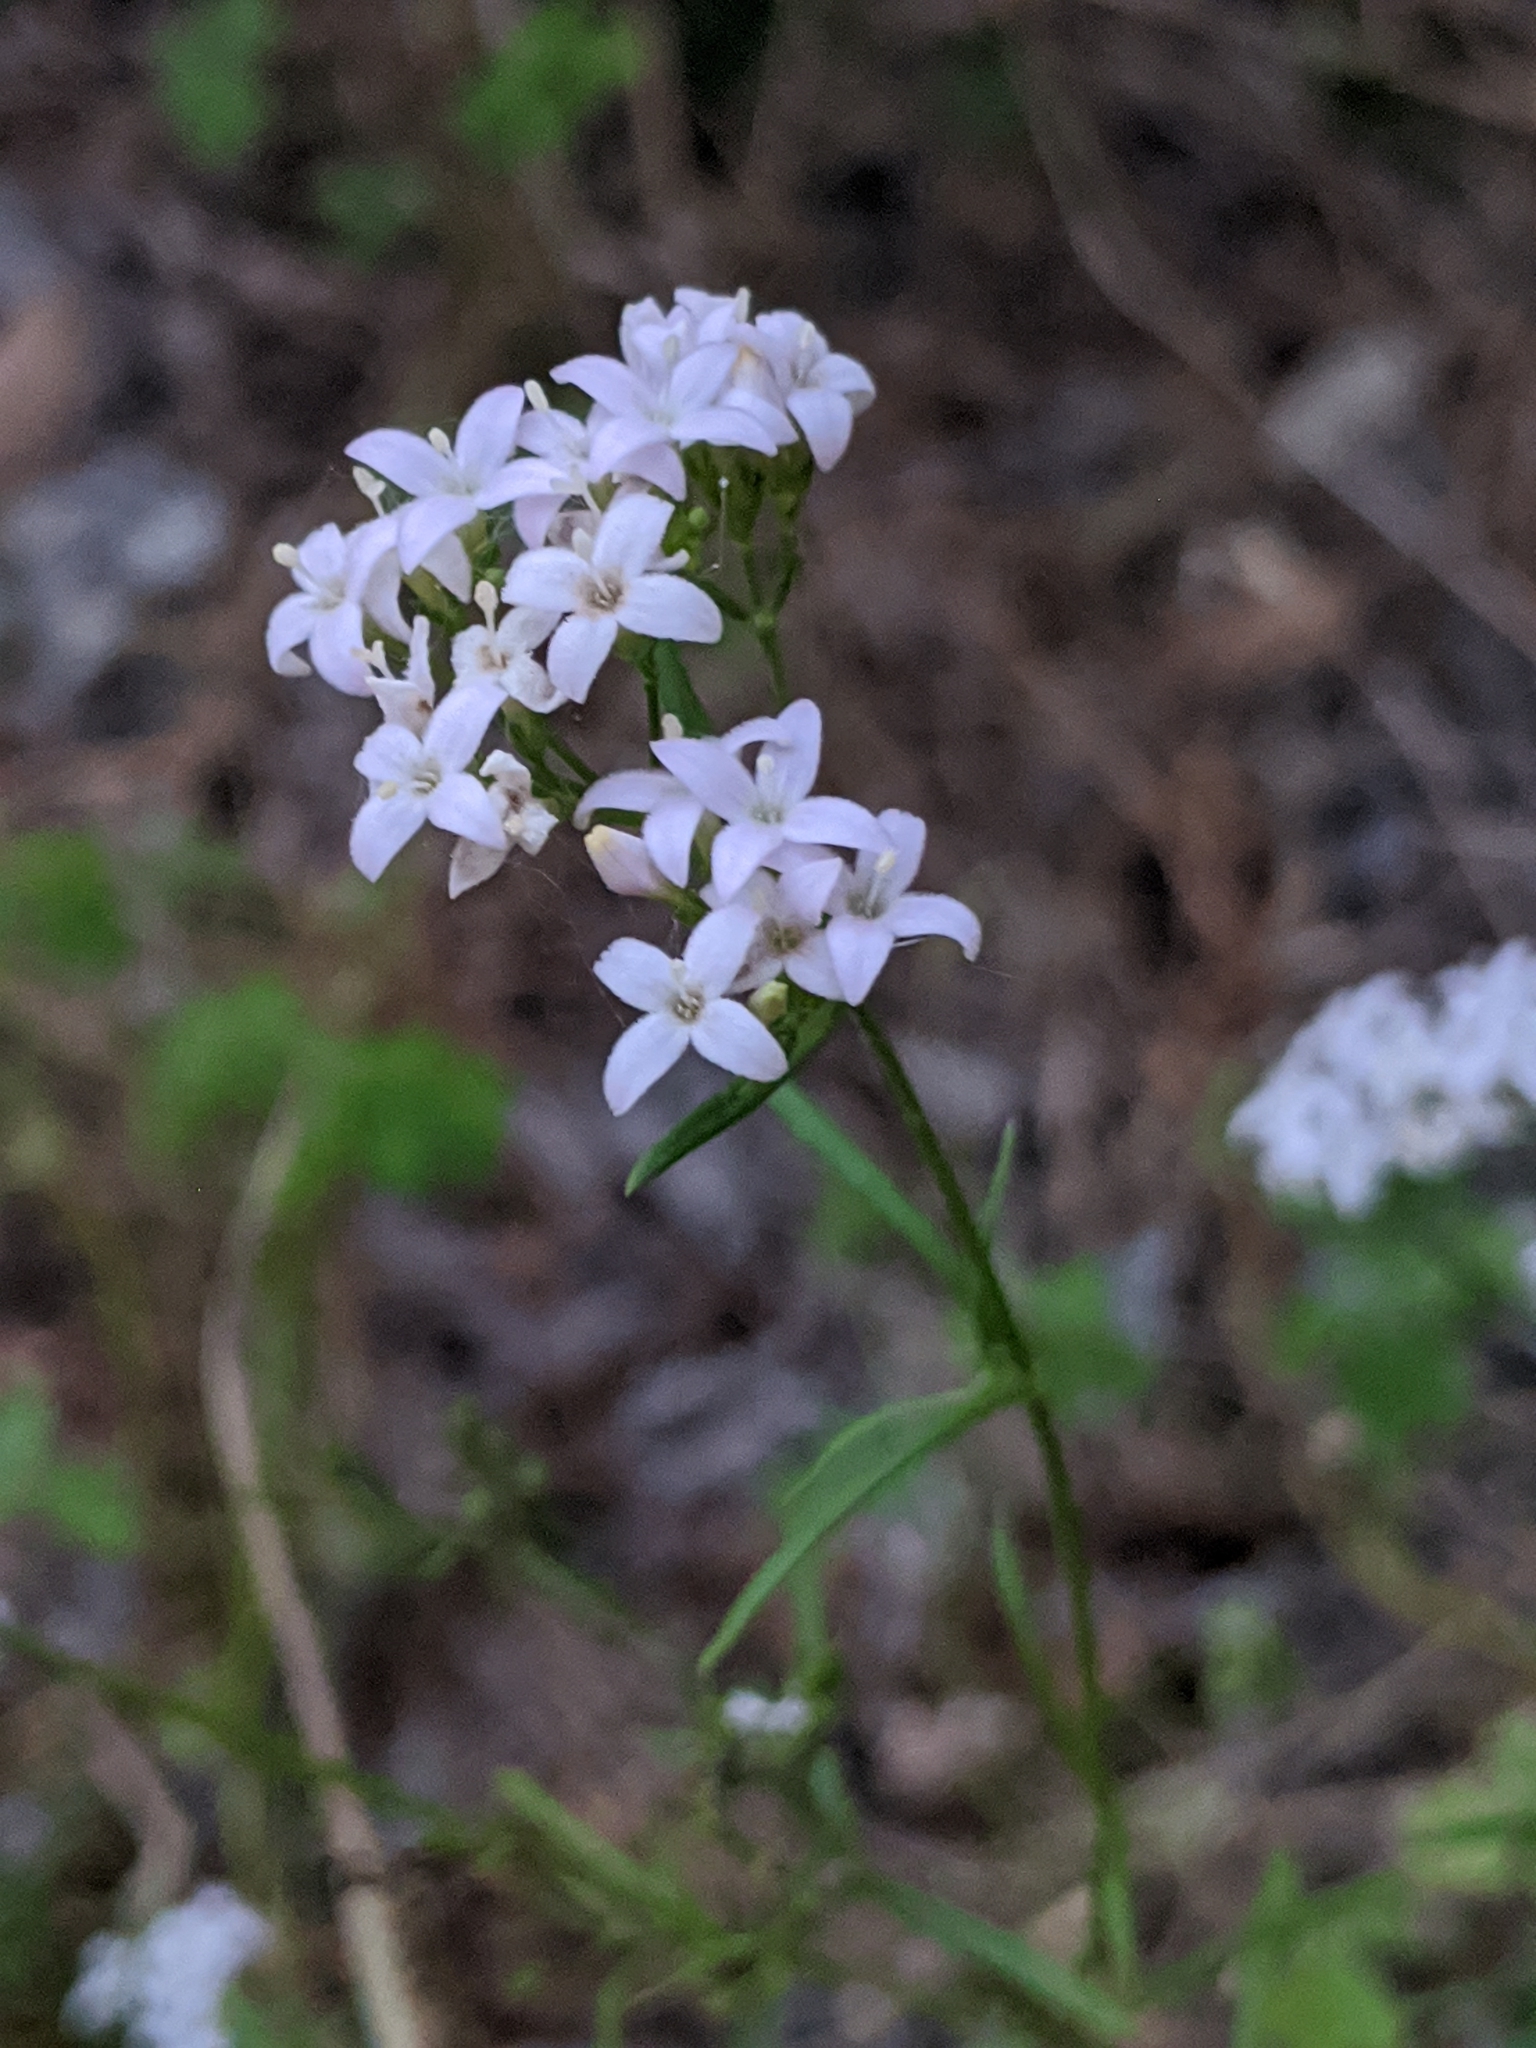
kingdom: Plantae
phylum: Tracheophyta
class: Magnoliopsida
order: Gentianales
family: Rubiaceae
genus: Stenaria
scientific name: Stenaria nigricans
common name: Diamondflowers
